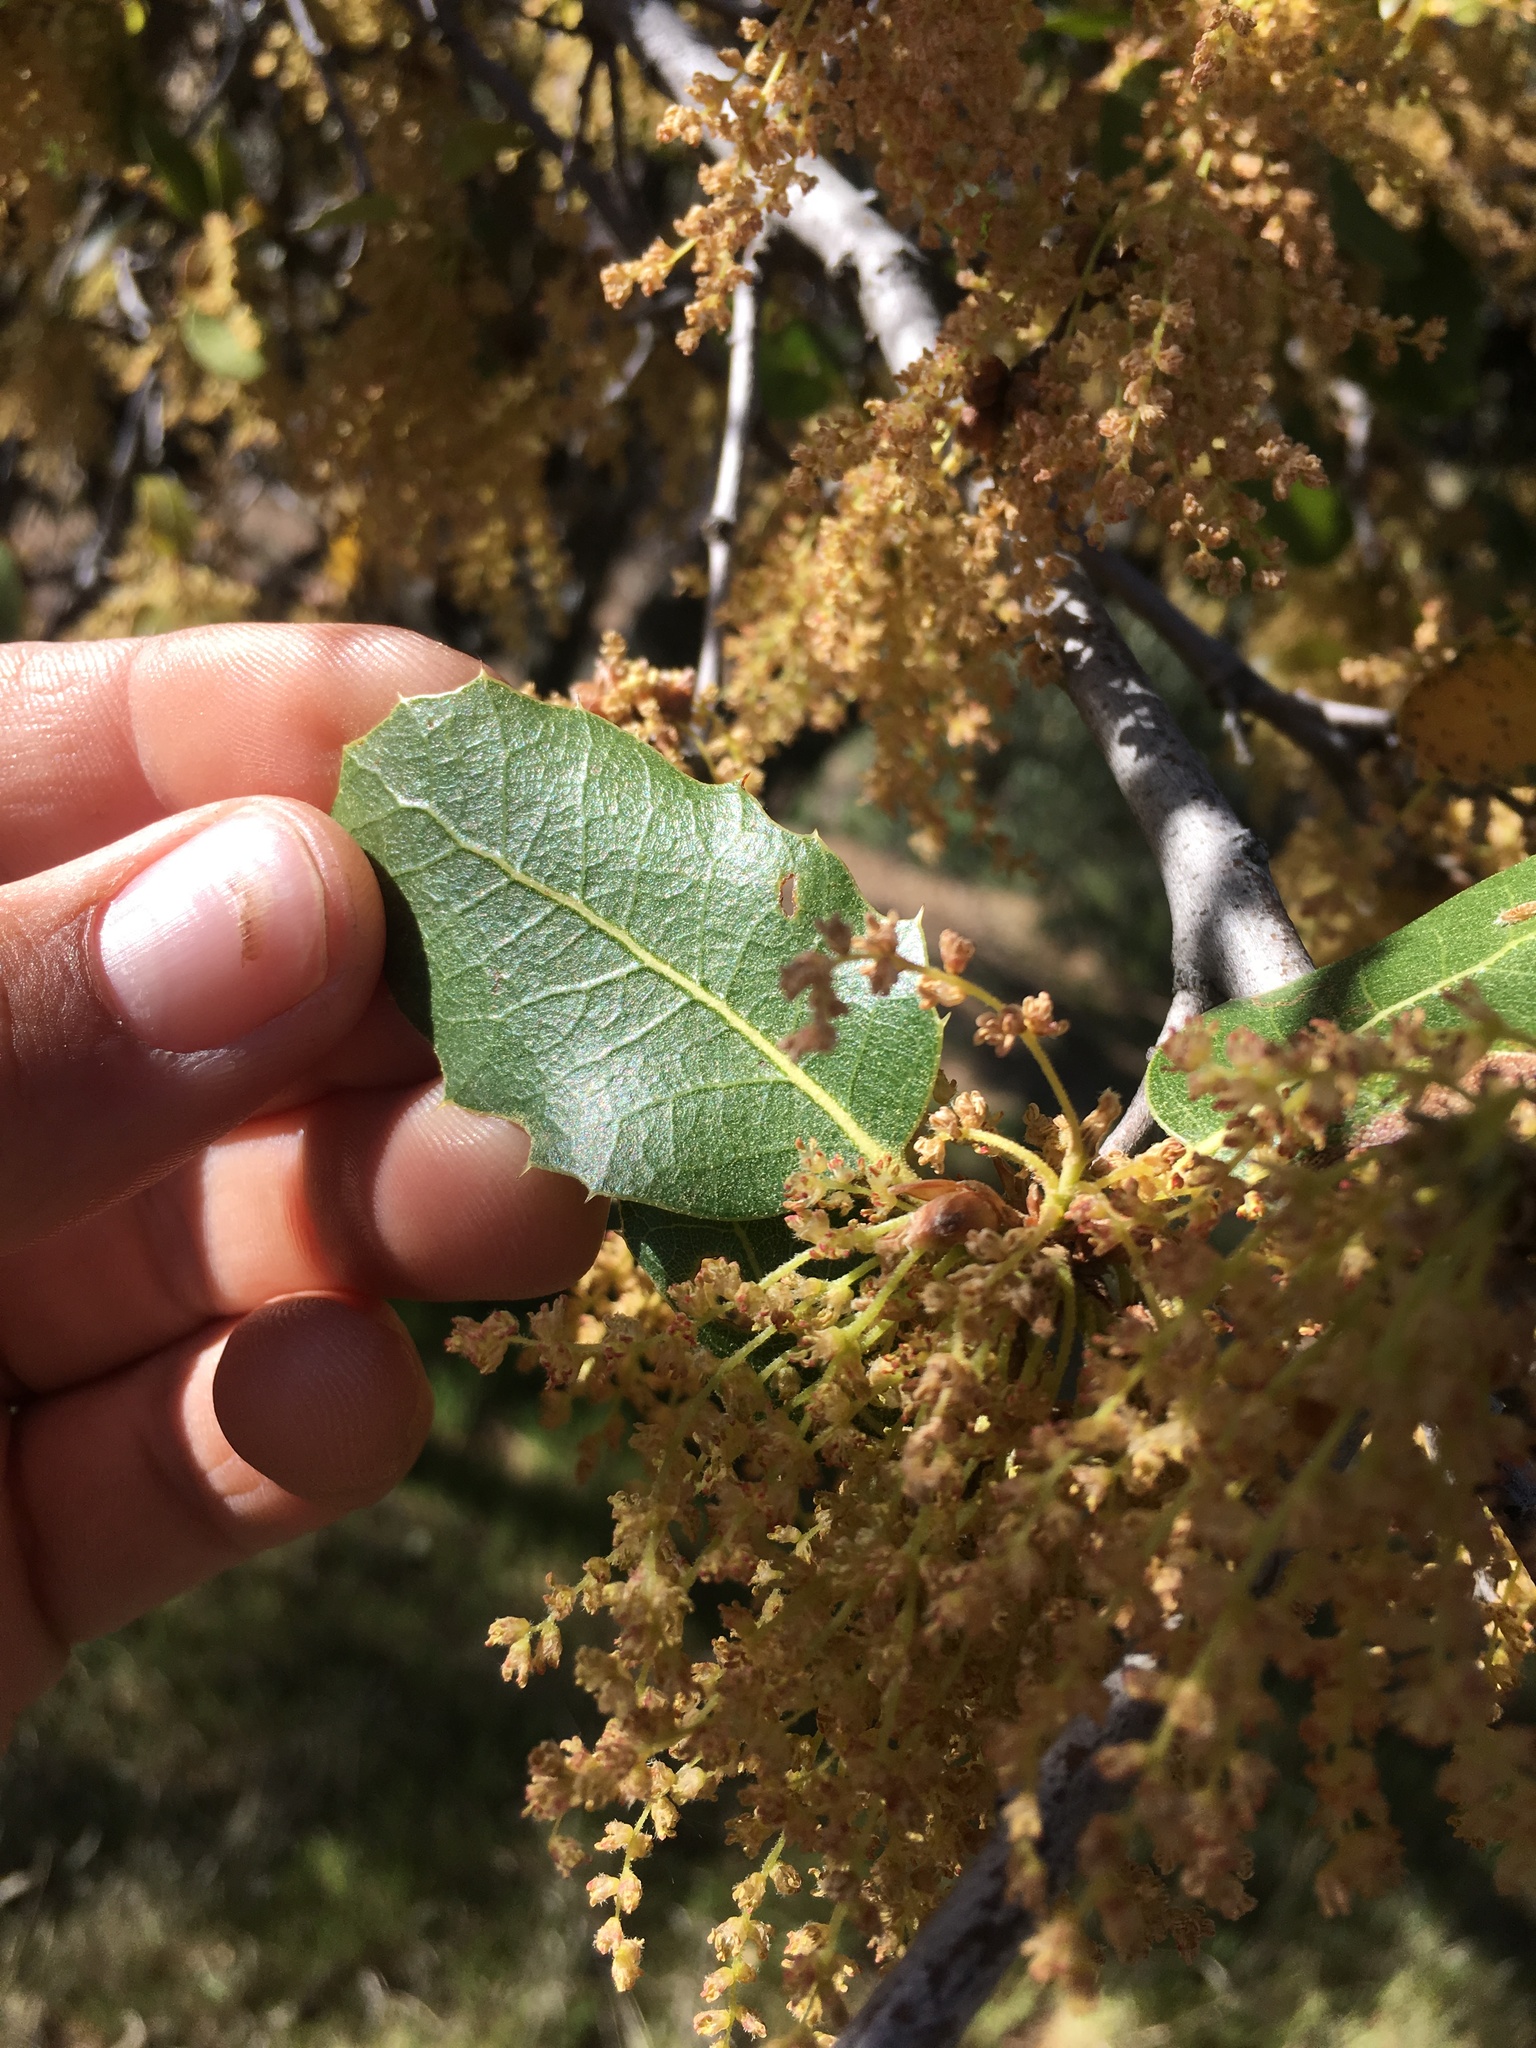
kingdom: Plantae
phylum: Tracheophyta
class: Magnoliopsida
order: Fagales
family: Fagaceae
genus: Quercus
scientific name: Quercus wislizeni
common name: Interior live oak
